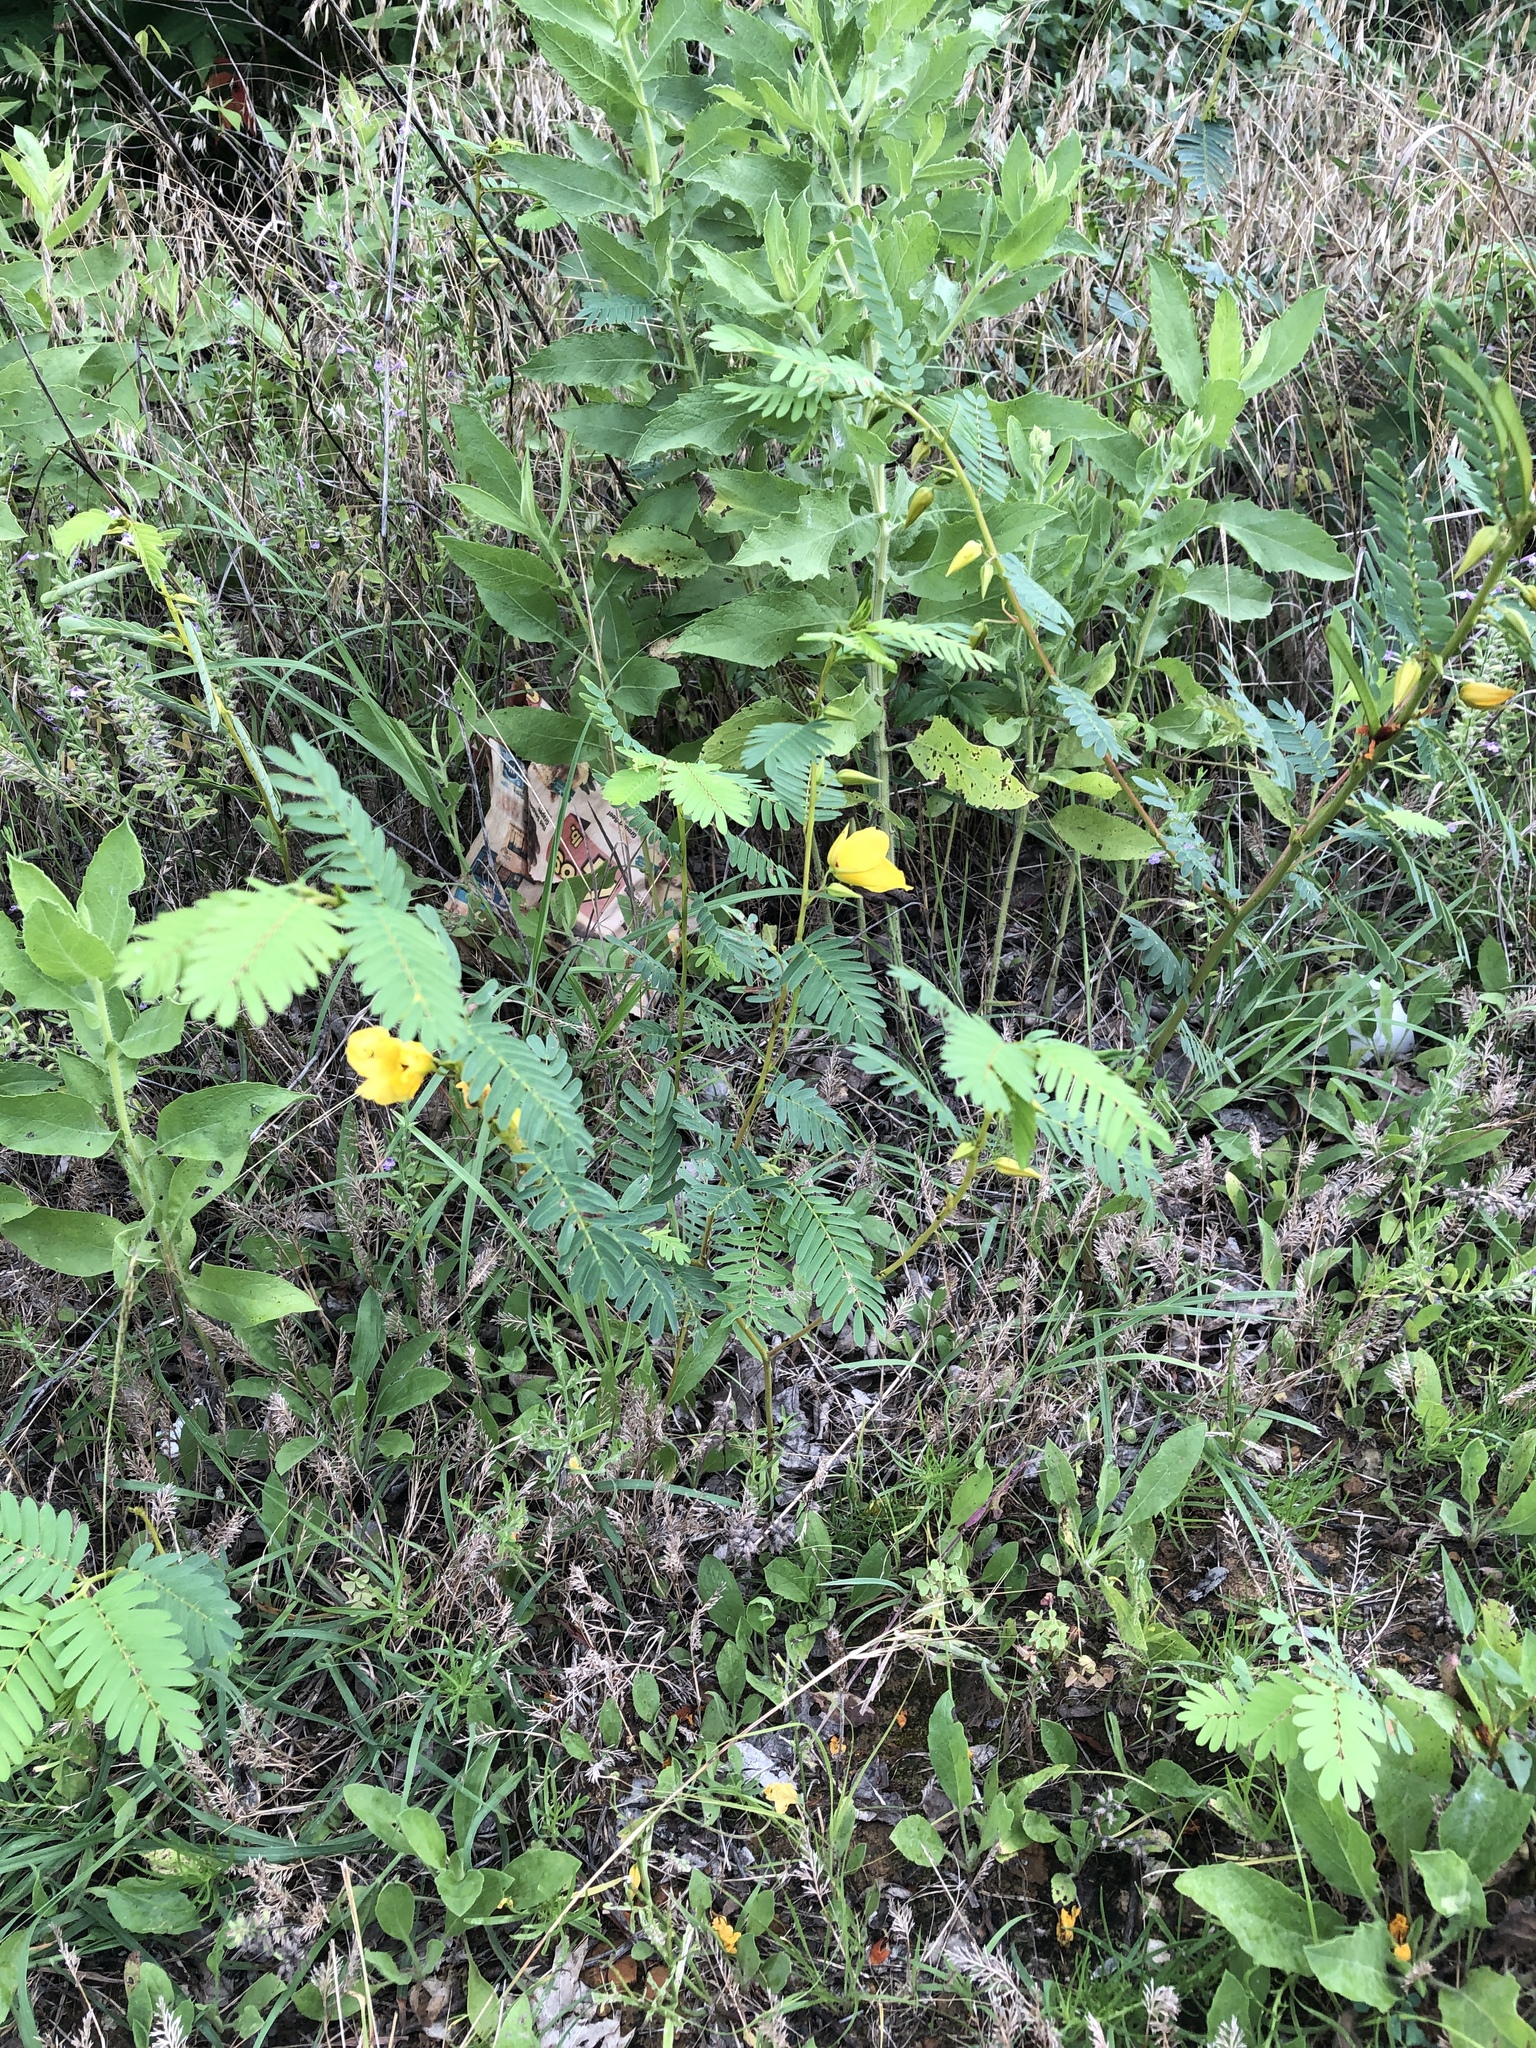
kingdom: Plantae
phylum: Tracheophyta
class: Magnoliopsida
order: Fabales
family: Fabaceae
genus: Chamaecrista
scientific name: Chamaecrista fasciculata
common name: Golden cassia
